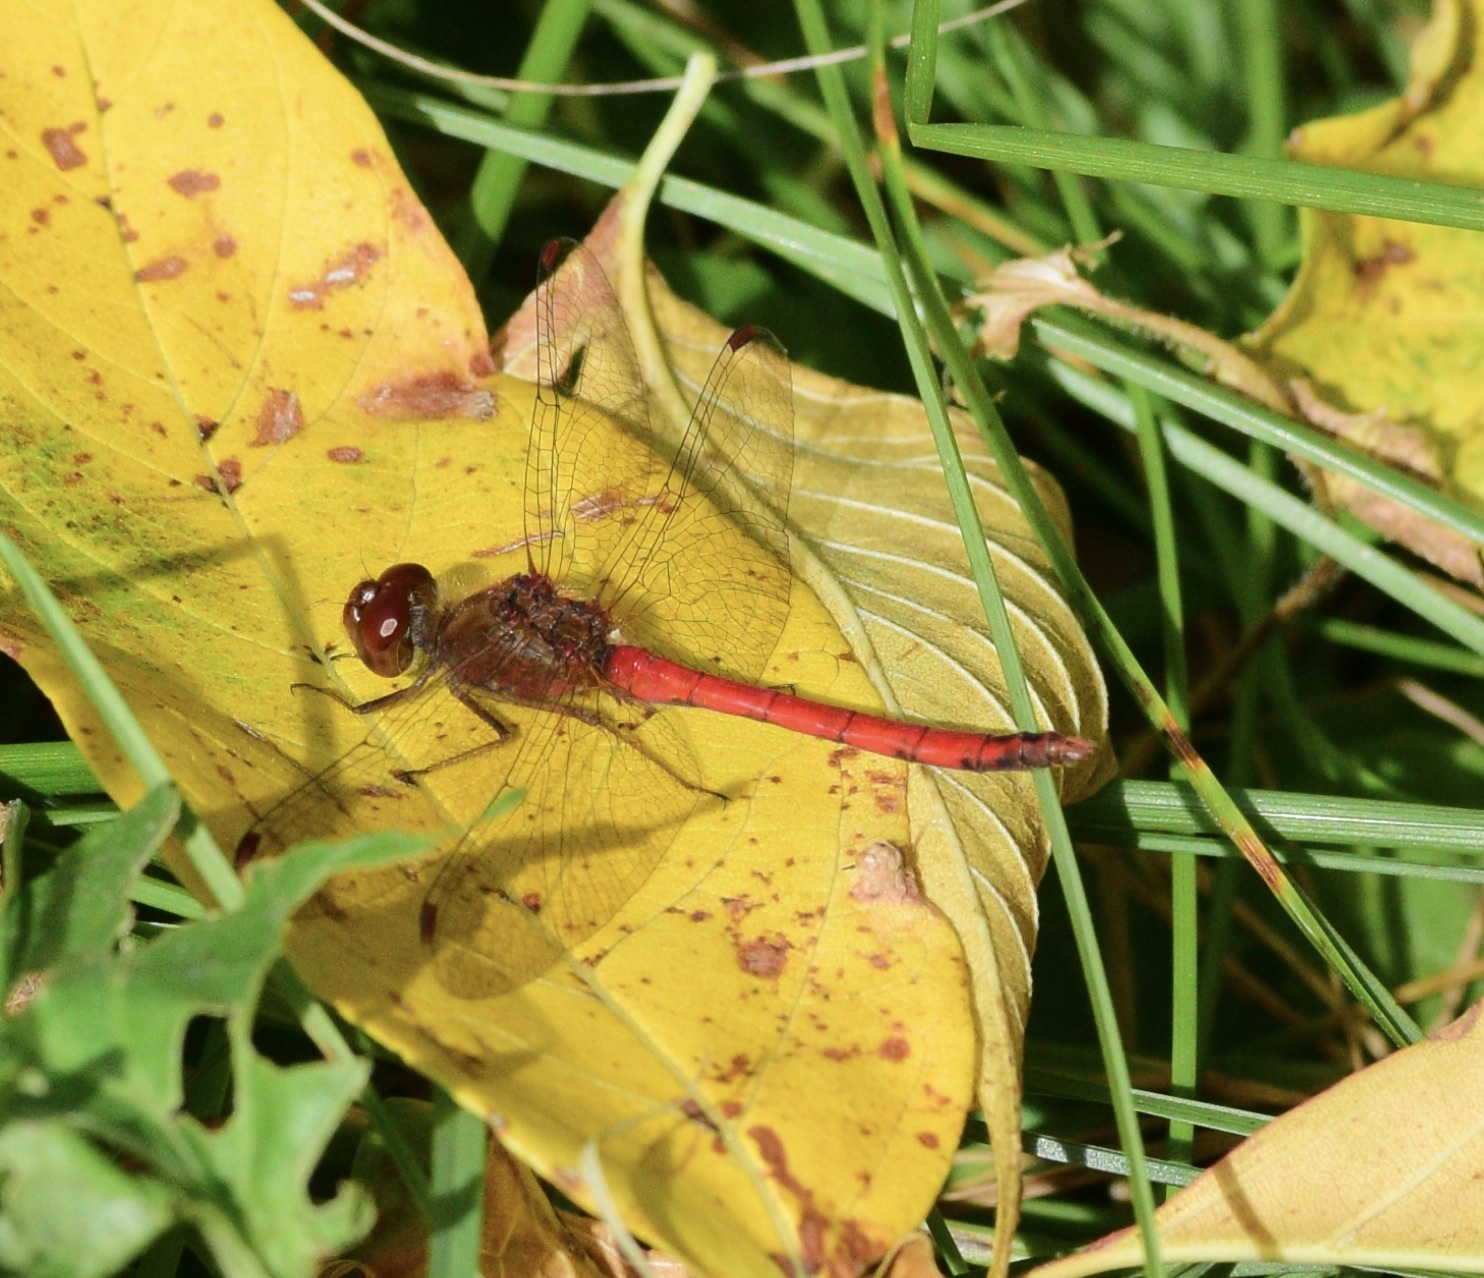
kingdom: Animalia
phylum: Arthropoda
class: Insecta
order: Odonata
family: Libellulidae
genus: Sympetrum
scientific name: Sympetrum vicinum
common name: Autumn meadowhawk
